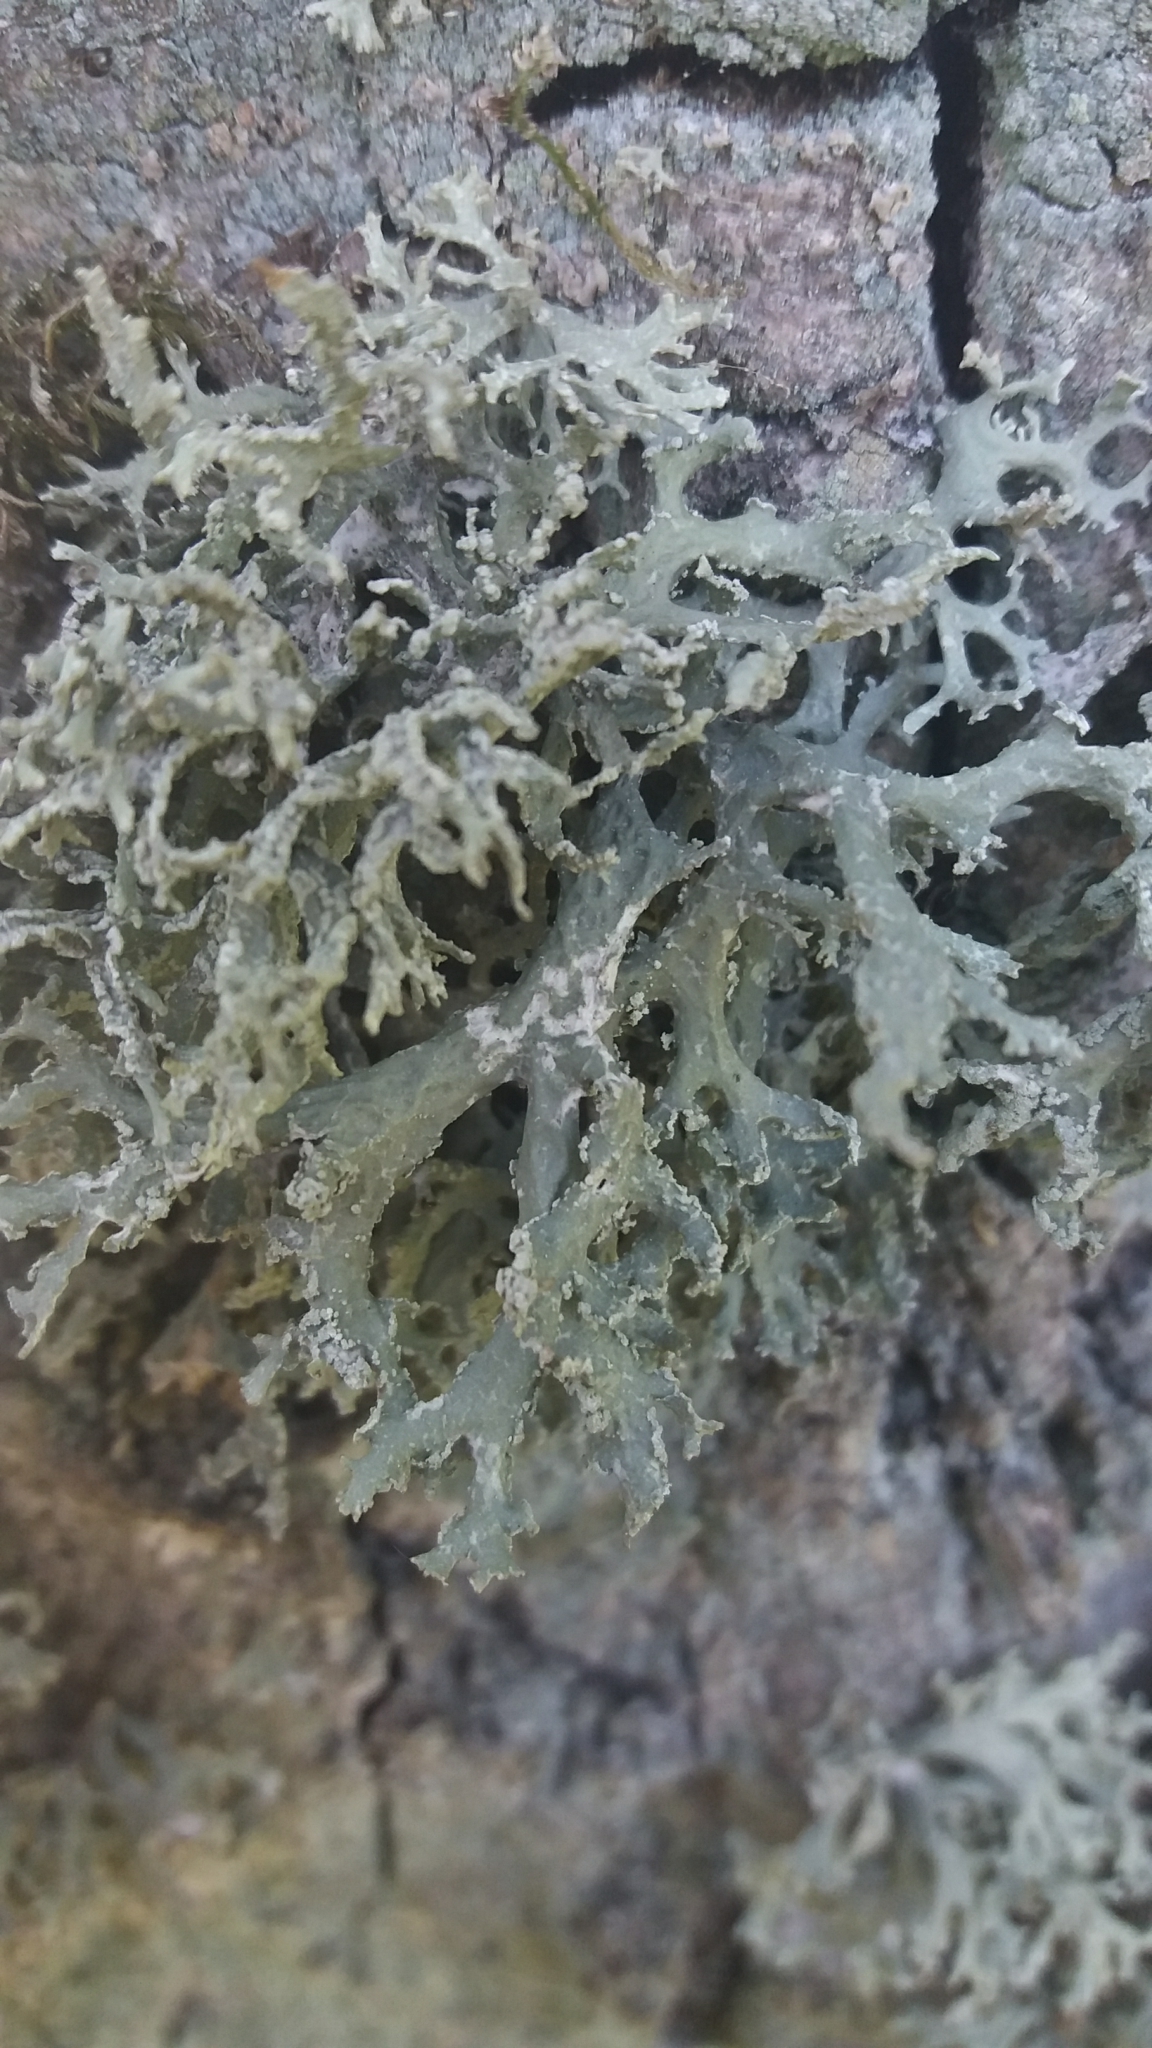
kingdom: Fungi
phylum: Ascomycota
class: Lecanoromycetes
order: Lecanorales
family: Parmeliaceae
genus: Evernia
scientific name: Evernia prunastri
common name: Oak moss
